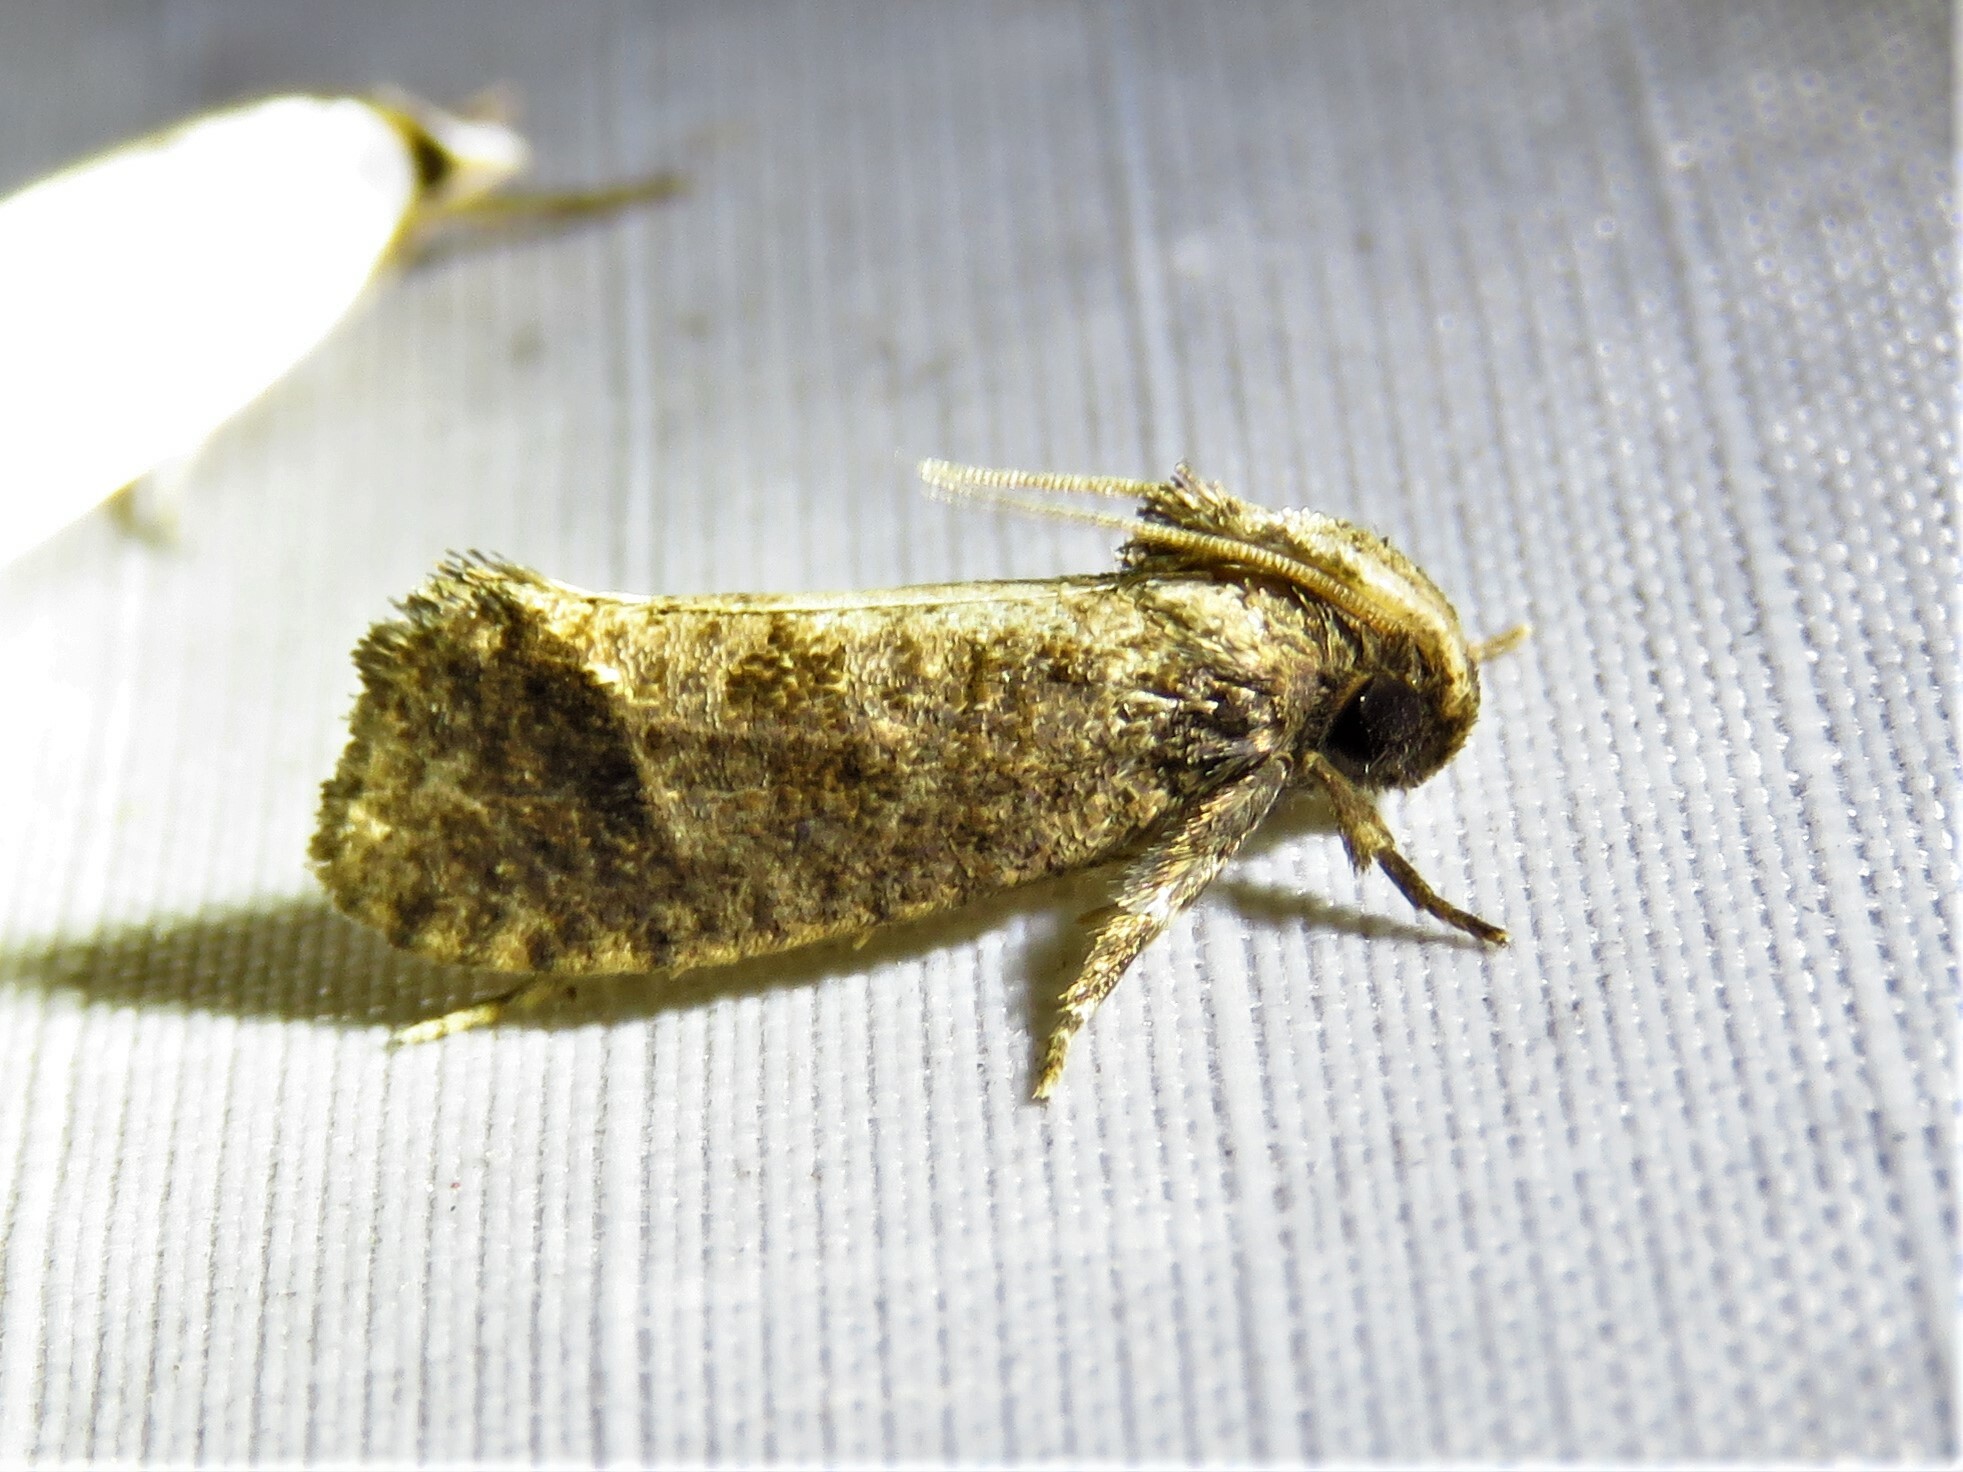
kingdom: Animalia
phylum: Arthropoda
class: Insecta
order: Lepidoptera
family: Tineidae
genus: Acrolophus
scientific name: Acrolophus texanella
